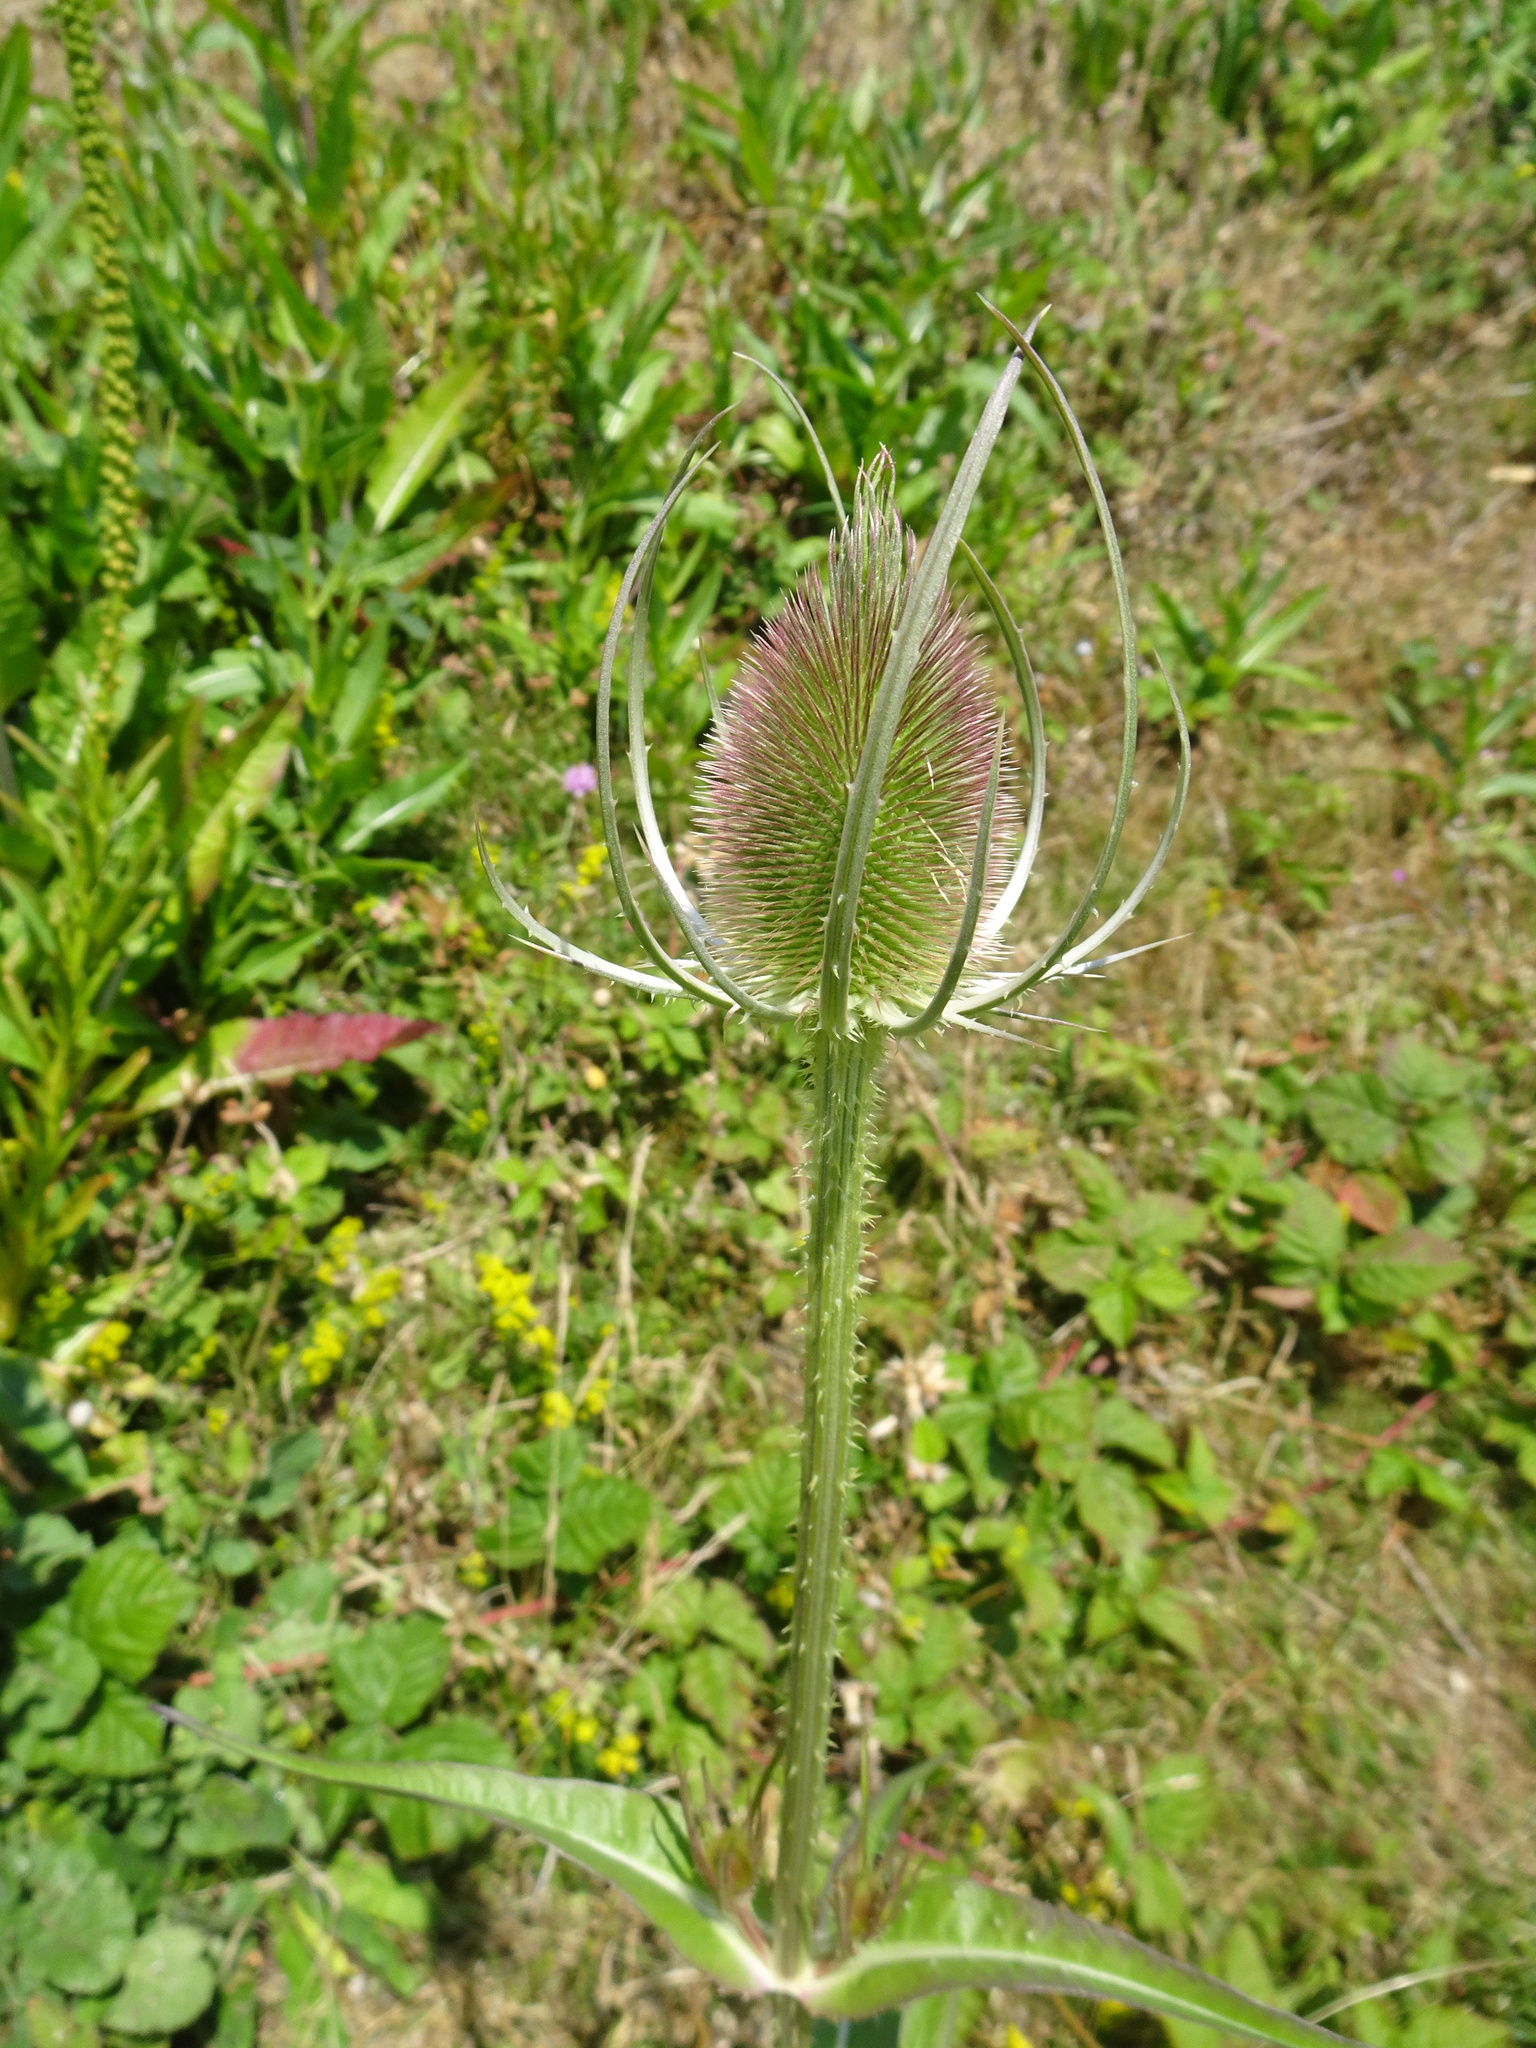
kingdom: Plantae
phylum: Tracheophyta
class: Magnoliopsida
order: Dipsacales
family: Caprifoliaceae
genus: Dipsacus
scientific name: Dipsacus fullonum
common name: Teasel
